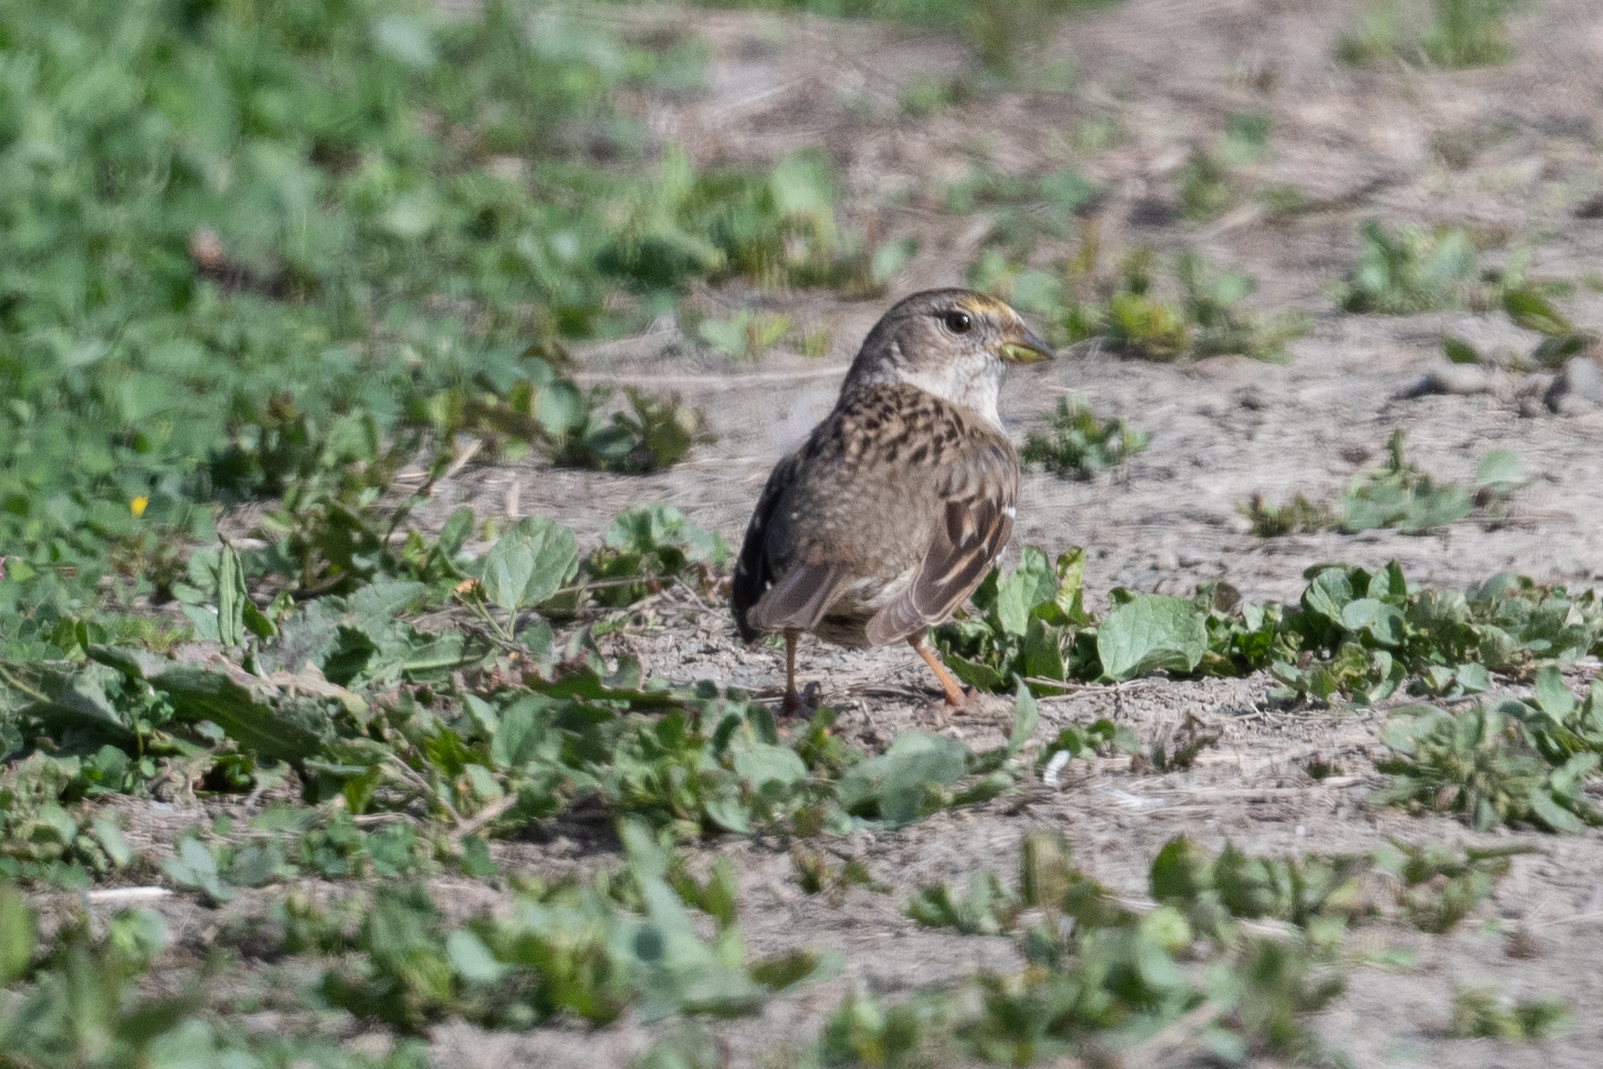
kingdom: Animalia
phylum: Chordata
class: Aves
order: Passeriformes
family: Passerellidae
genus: Zonotrichia
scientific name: Zonotrichia atricapilla
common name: Golden-crowned sparrow
